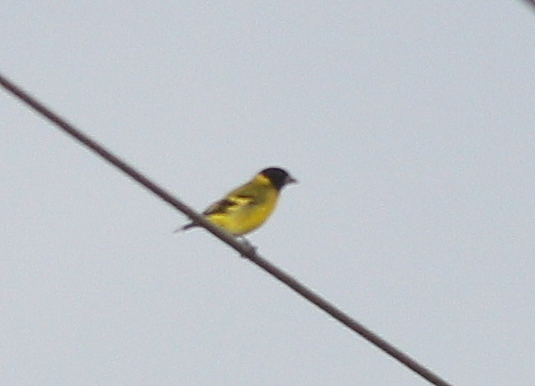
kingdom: Animalia
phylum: Chordata
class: Aves
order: Passeriformes
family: Fringillidae
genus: Spinus
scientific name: Spinus magellanicus
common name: Hooded siskin
